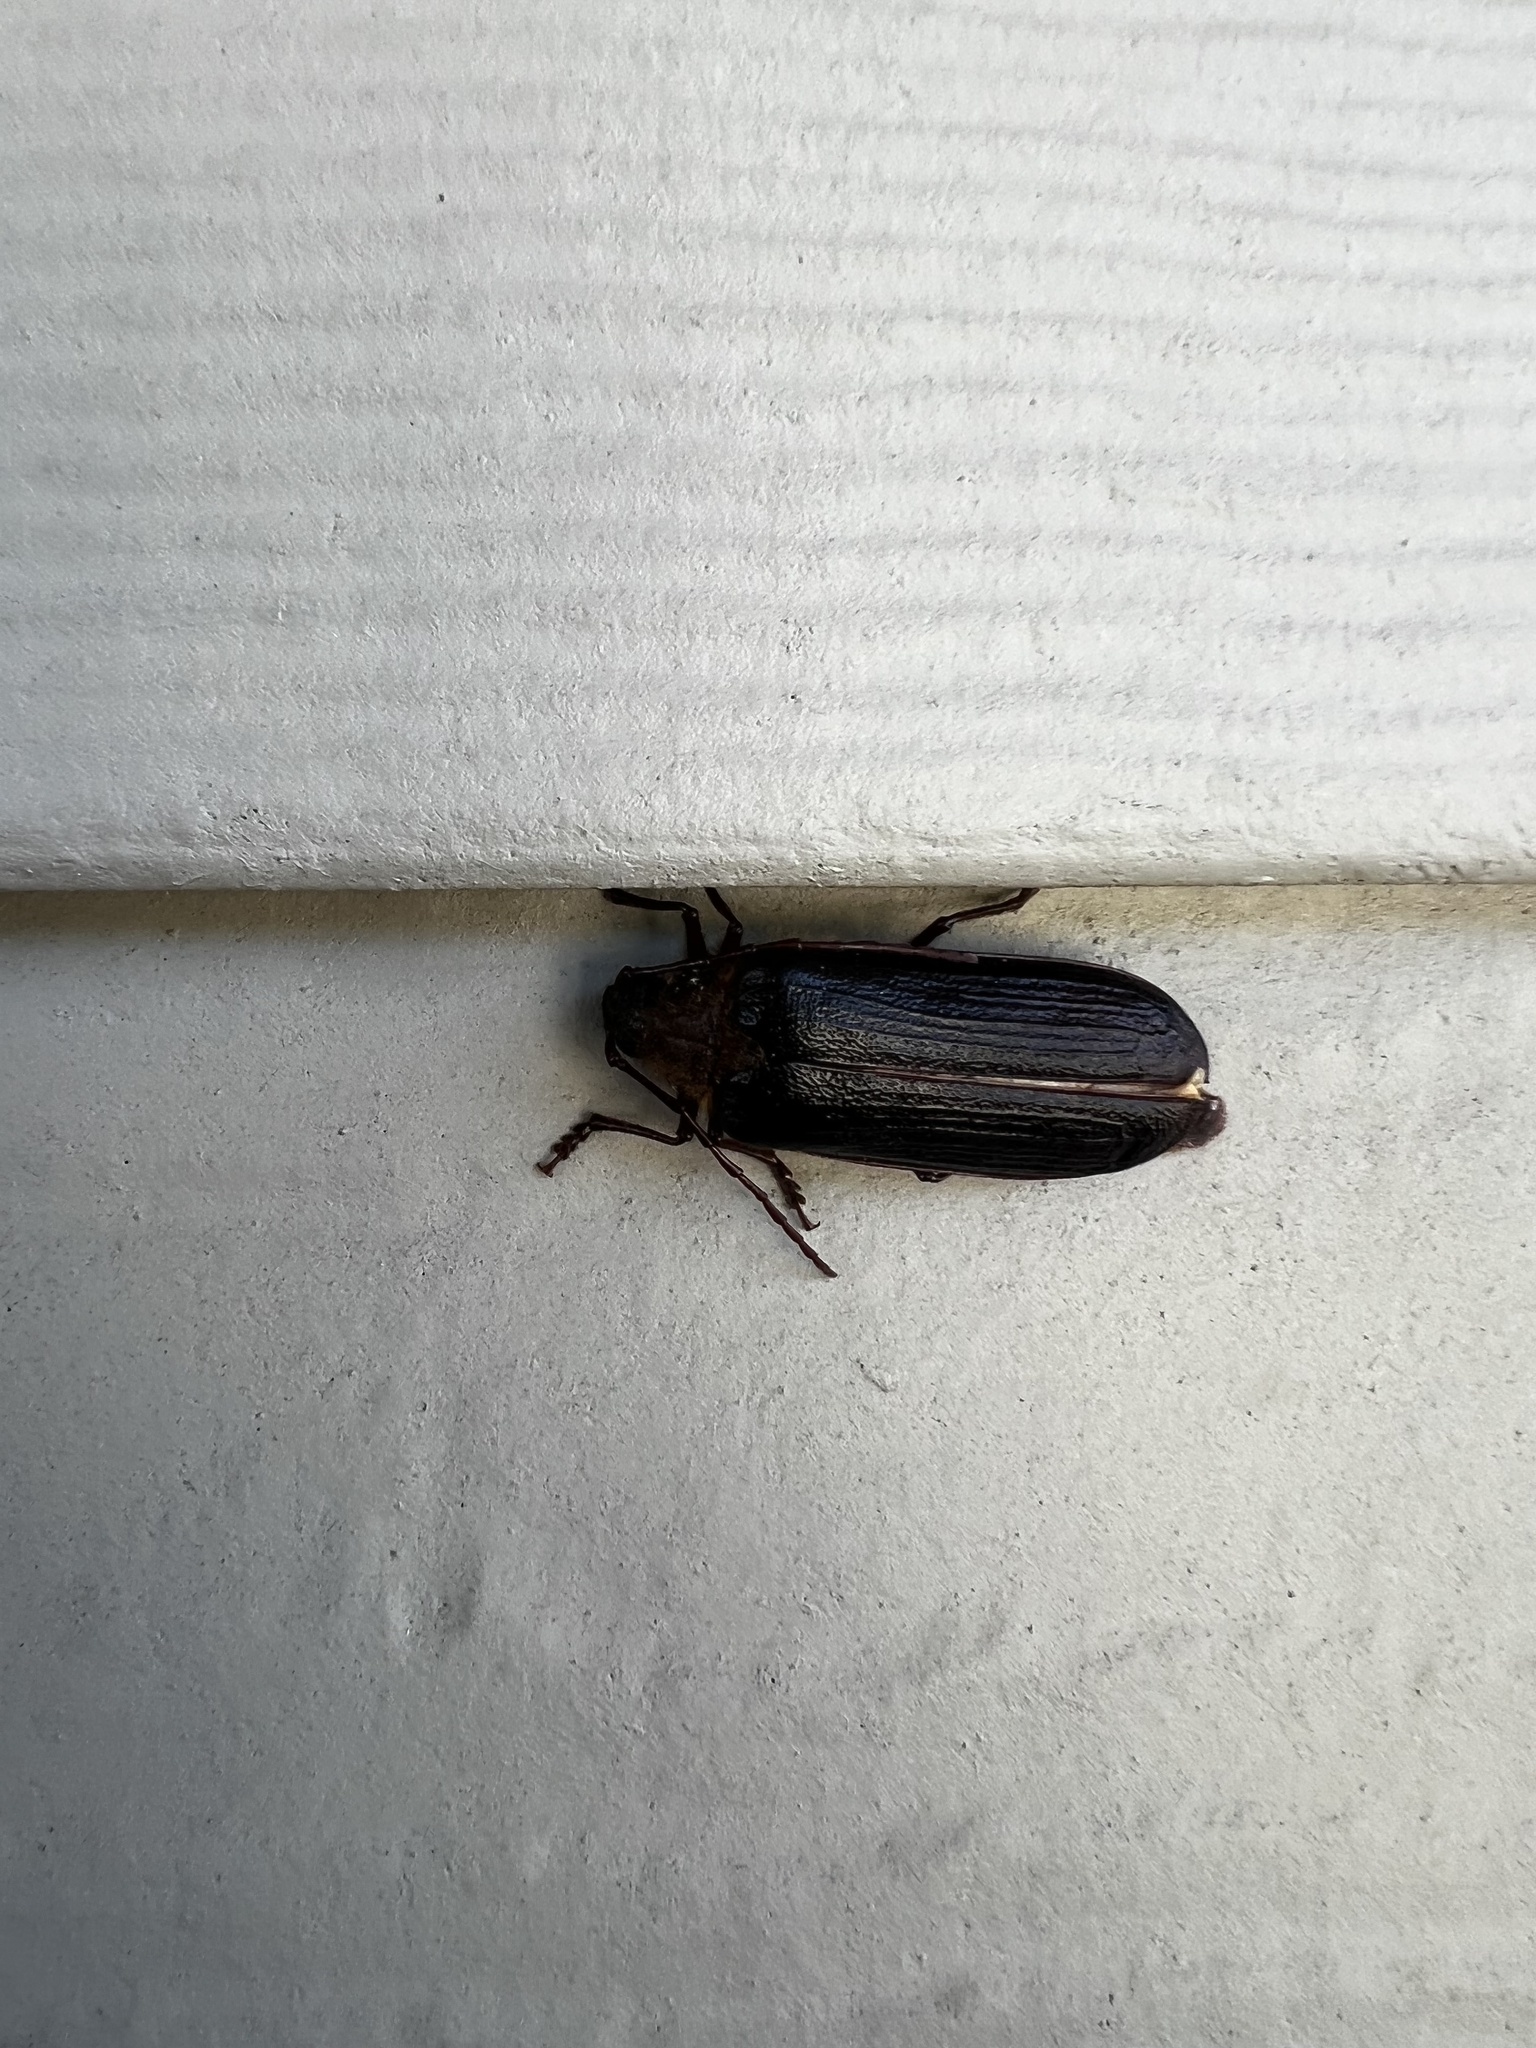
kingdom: Animalia
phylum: Arthropoda
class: Insecta
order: Coleoptera
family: Cerambycidae
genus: Tragosoma
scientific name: Tragosoma harrisii
